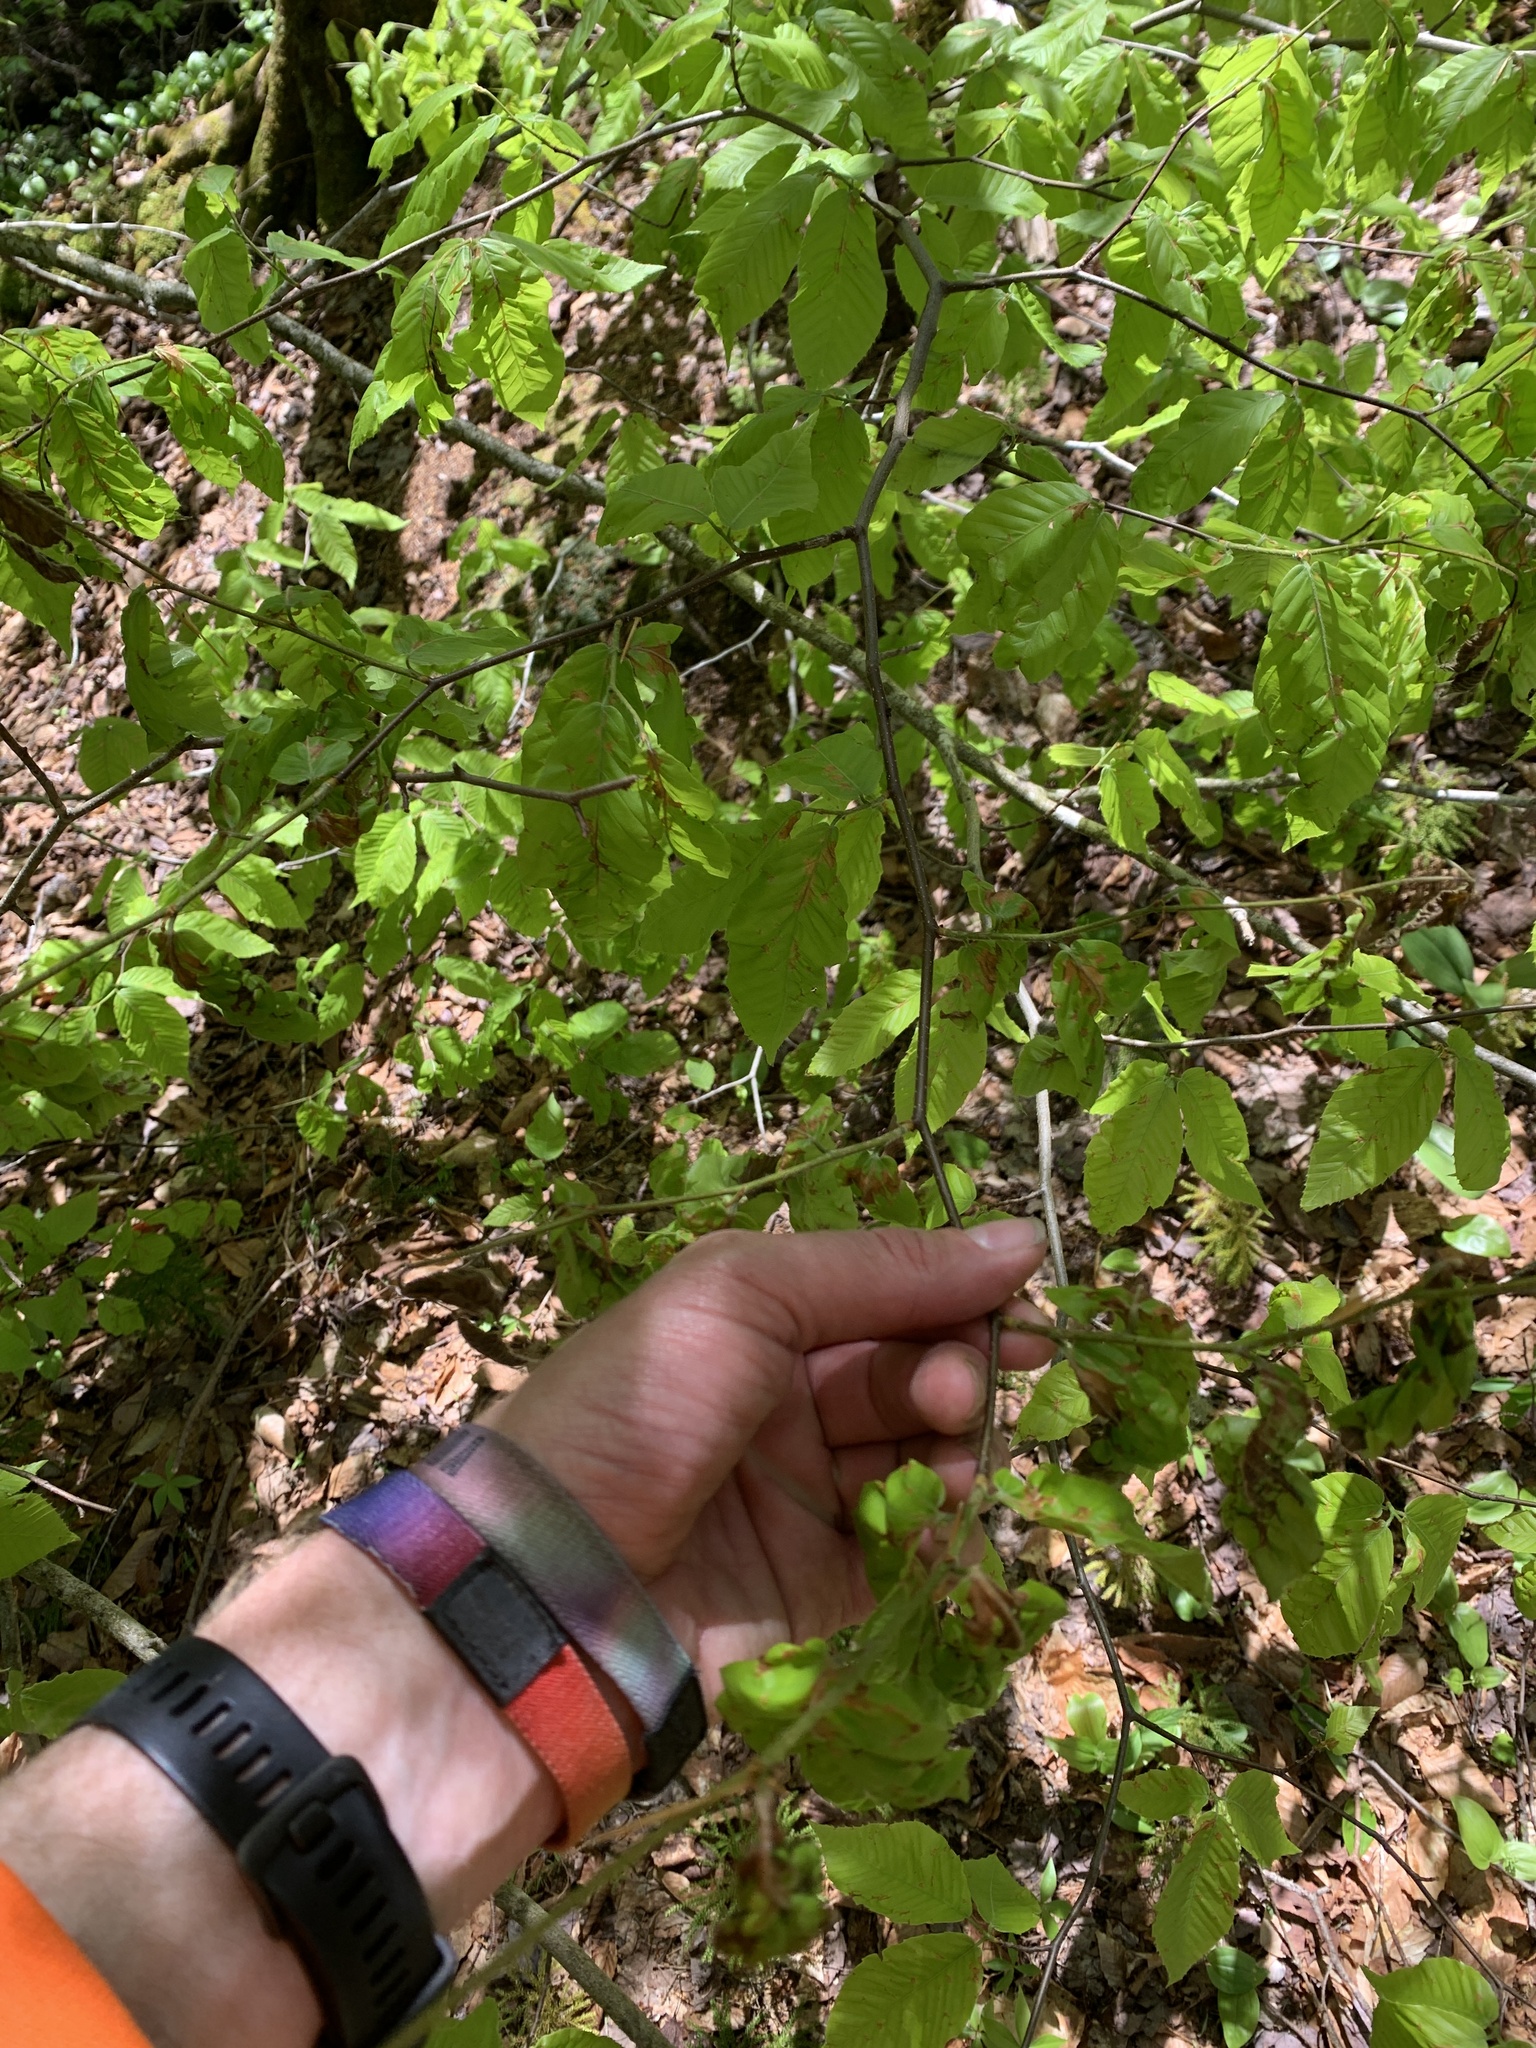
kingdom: Plantae
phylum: Tracheophyta
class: Magnoliopsida
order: Fagales
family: Fagaceae
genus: Fagus
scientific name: Fagus grandifolia
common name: American beech
